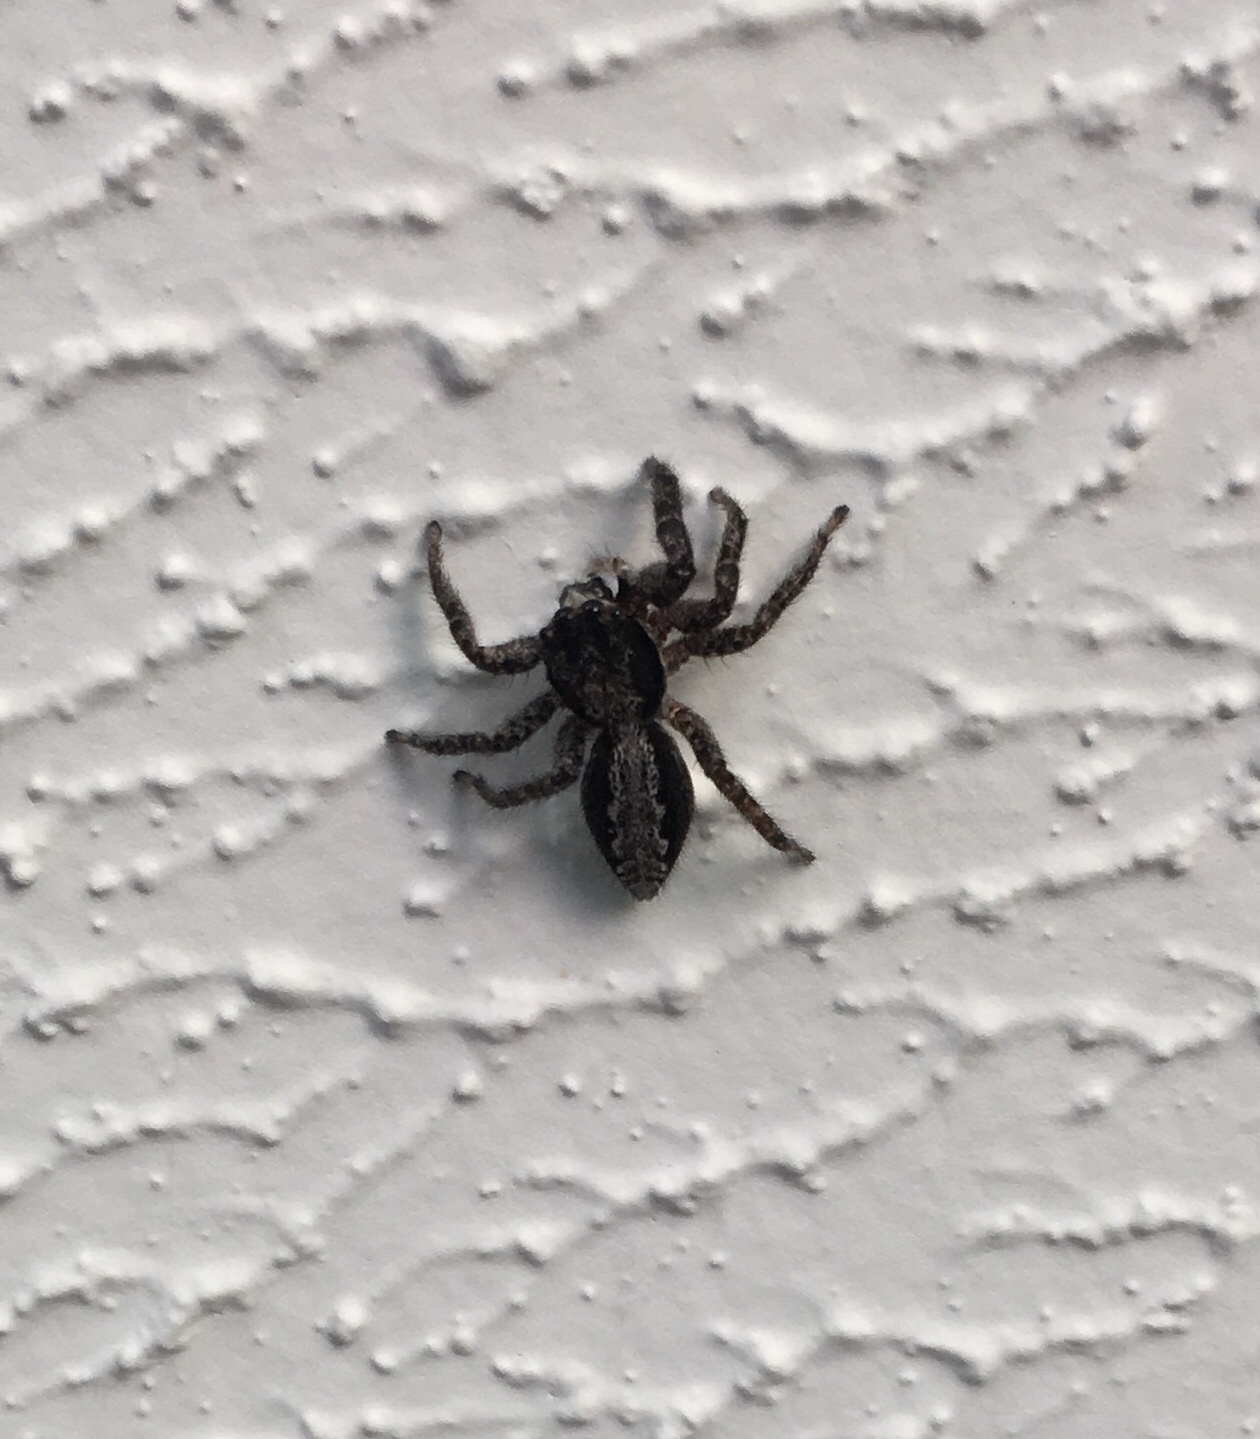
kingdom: Animalia
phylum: Arthropoda
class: Arachnida
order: Araneae
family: Salticidae
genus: Platycryptus
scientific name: Platycryptus californicus
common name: Jumping spiders
